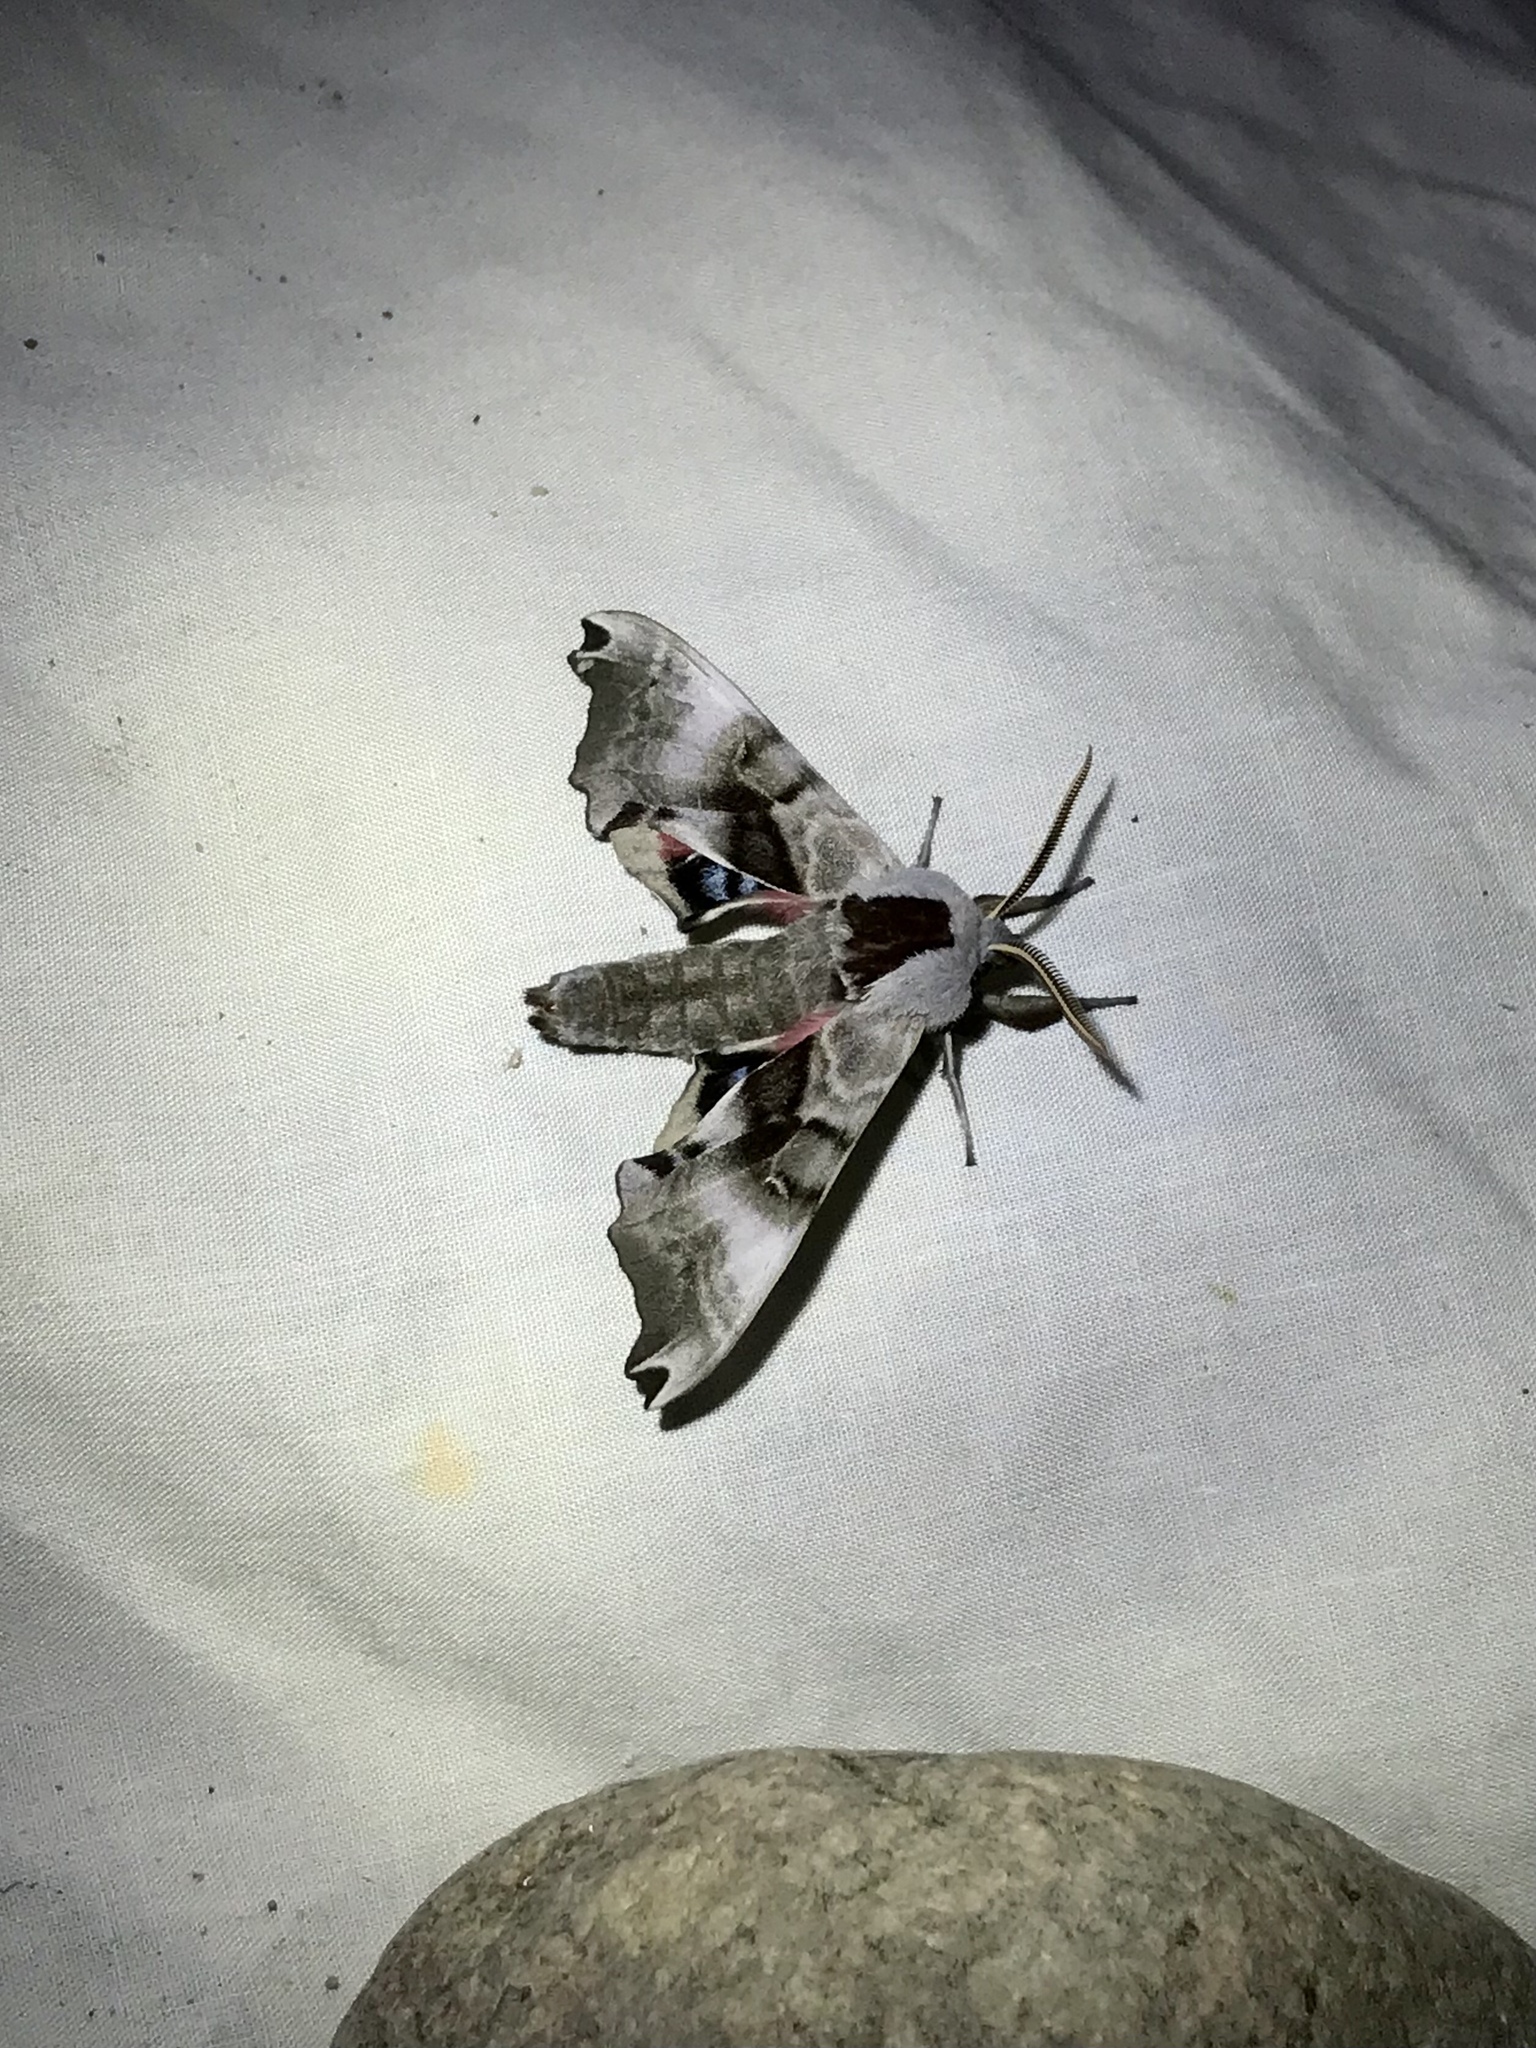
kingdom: Animalia
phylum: Arthropoda
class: Insecta
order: Lepidoptera
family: Sphingidae
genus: Smerinthus
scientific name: Smerinthus jamaicensis
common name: Twin spotted sphinx
